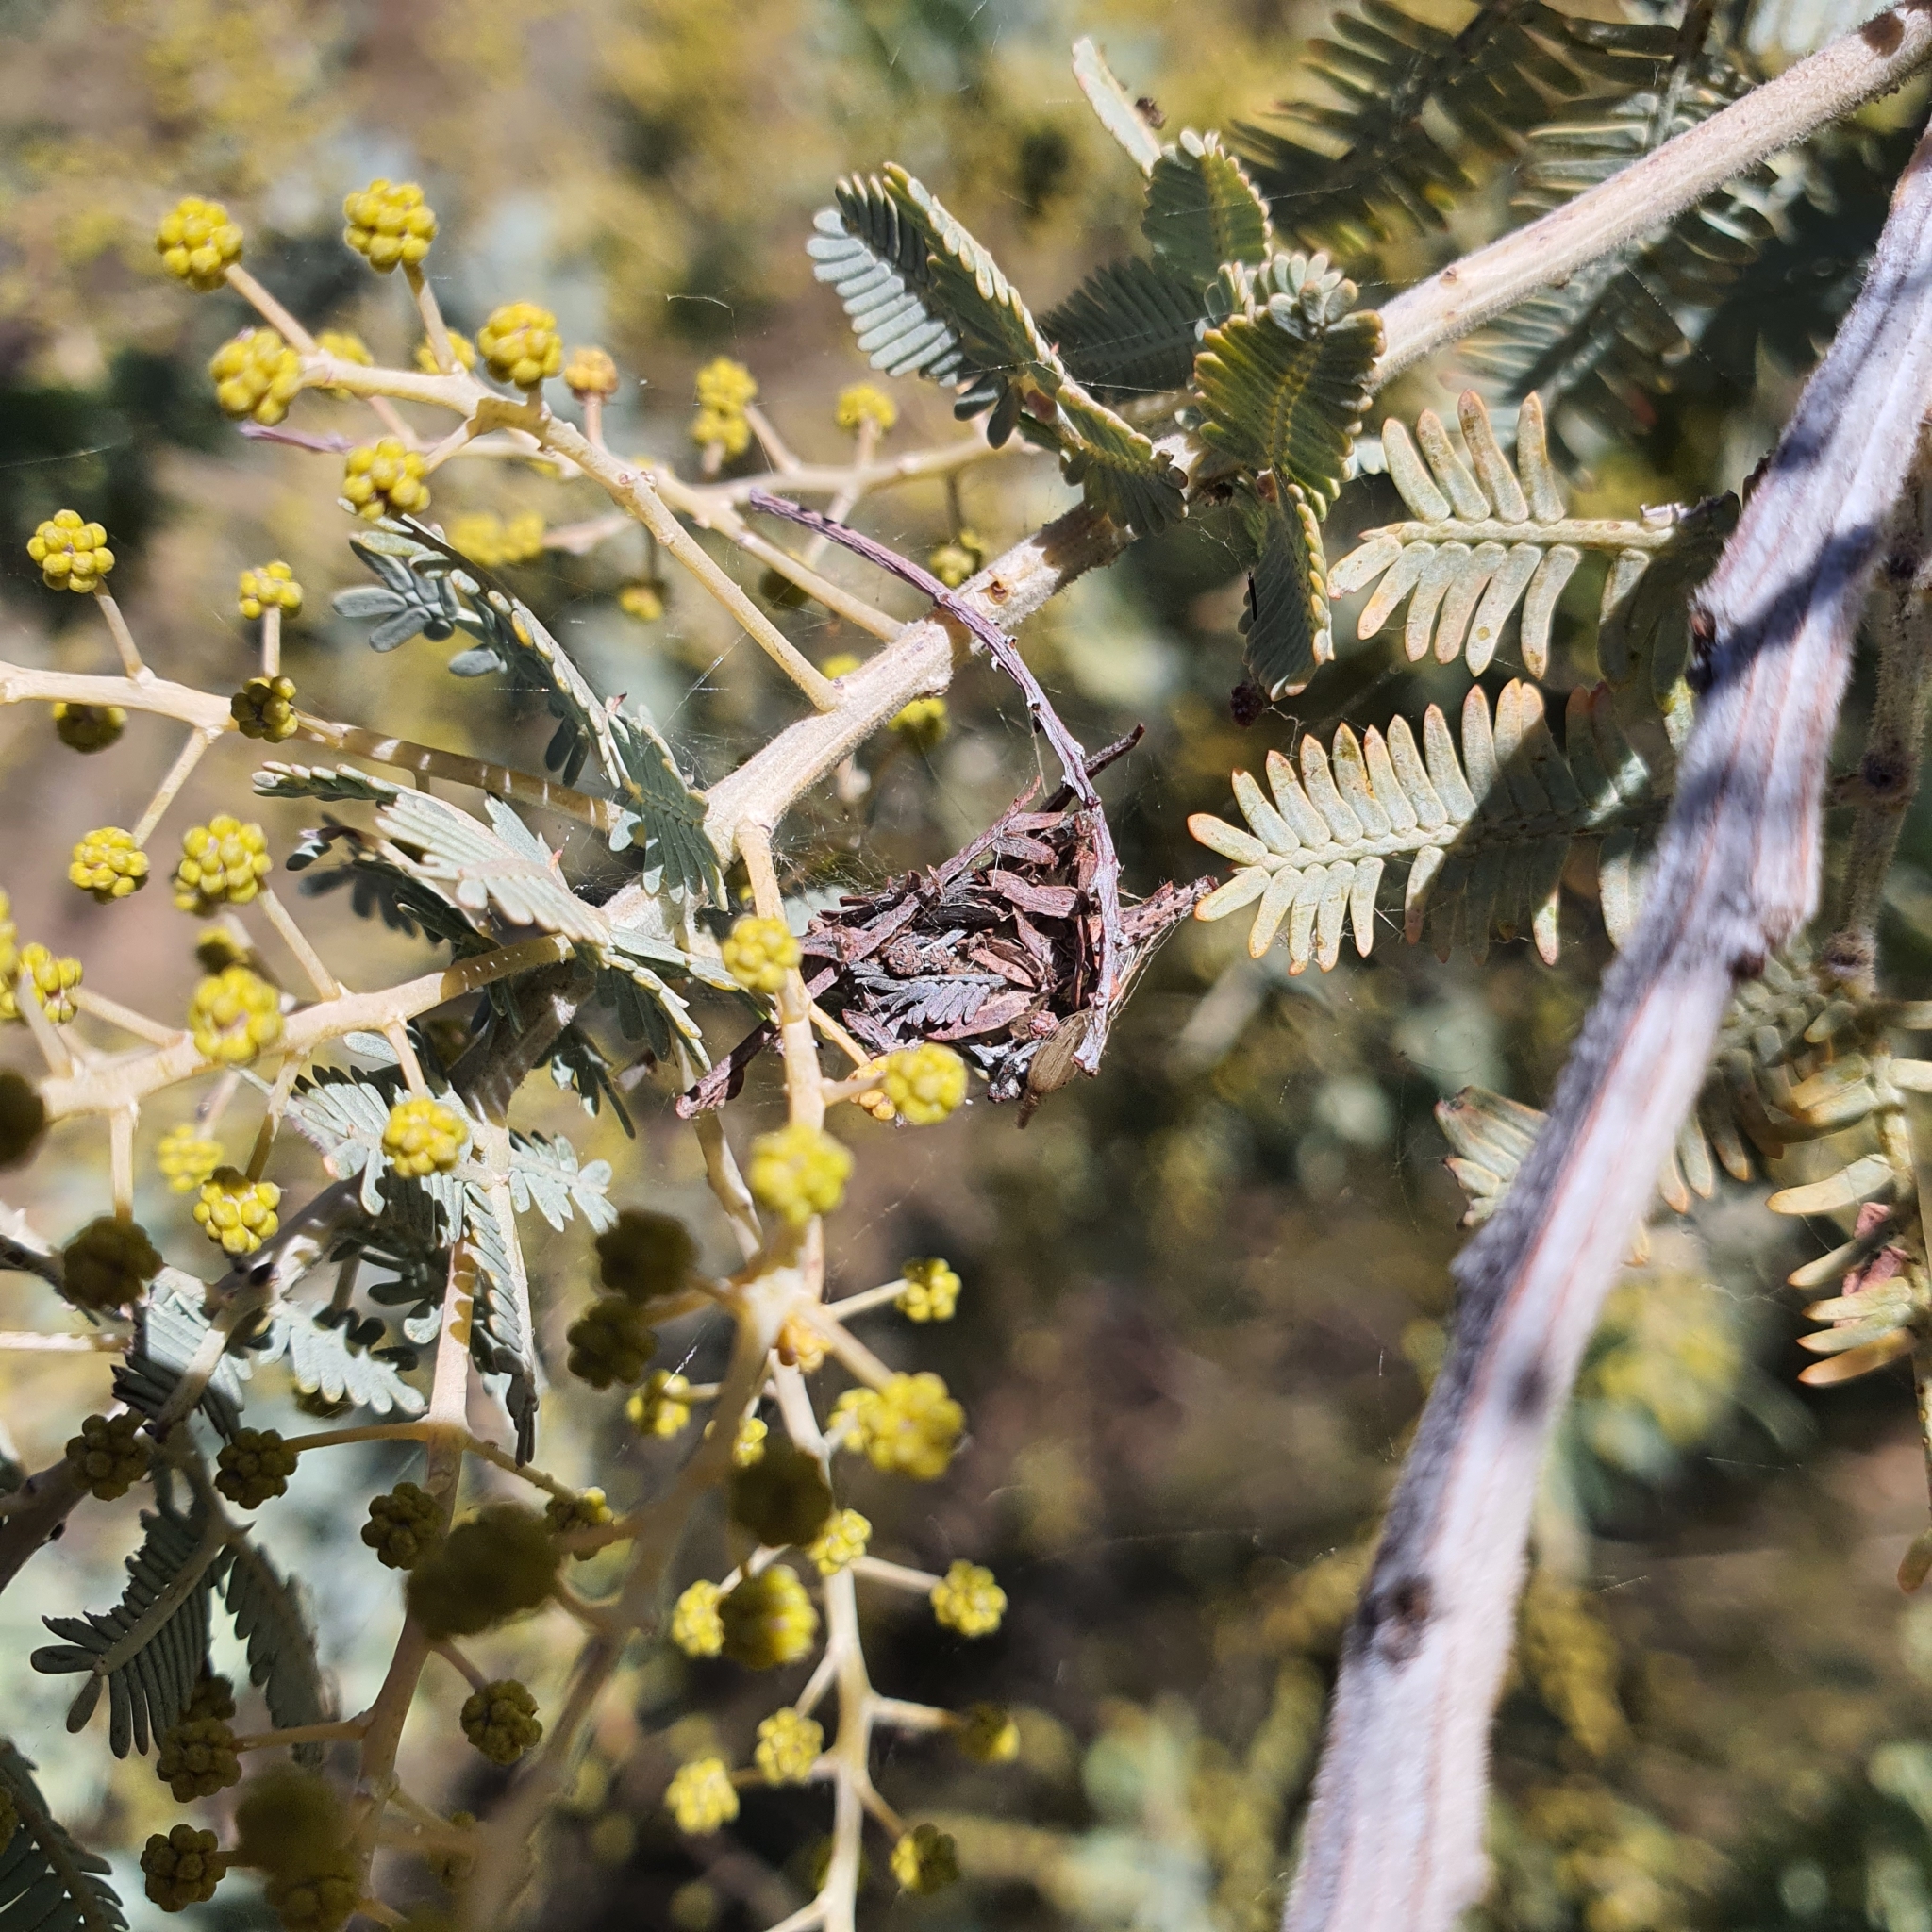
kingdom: Animalia
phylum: Arthropoda
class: Arachnida
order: Araneae
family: Theridiidae
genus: Cryptachaea
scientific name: Cryptachaea veruculata
